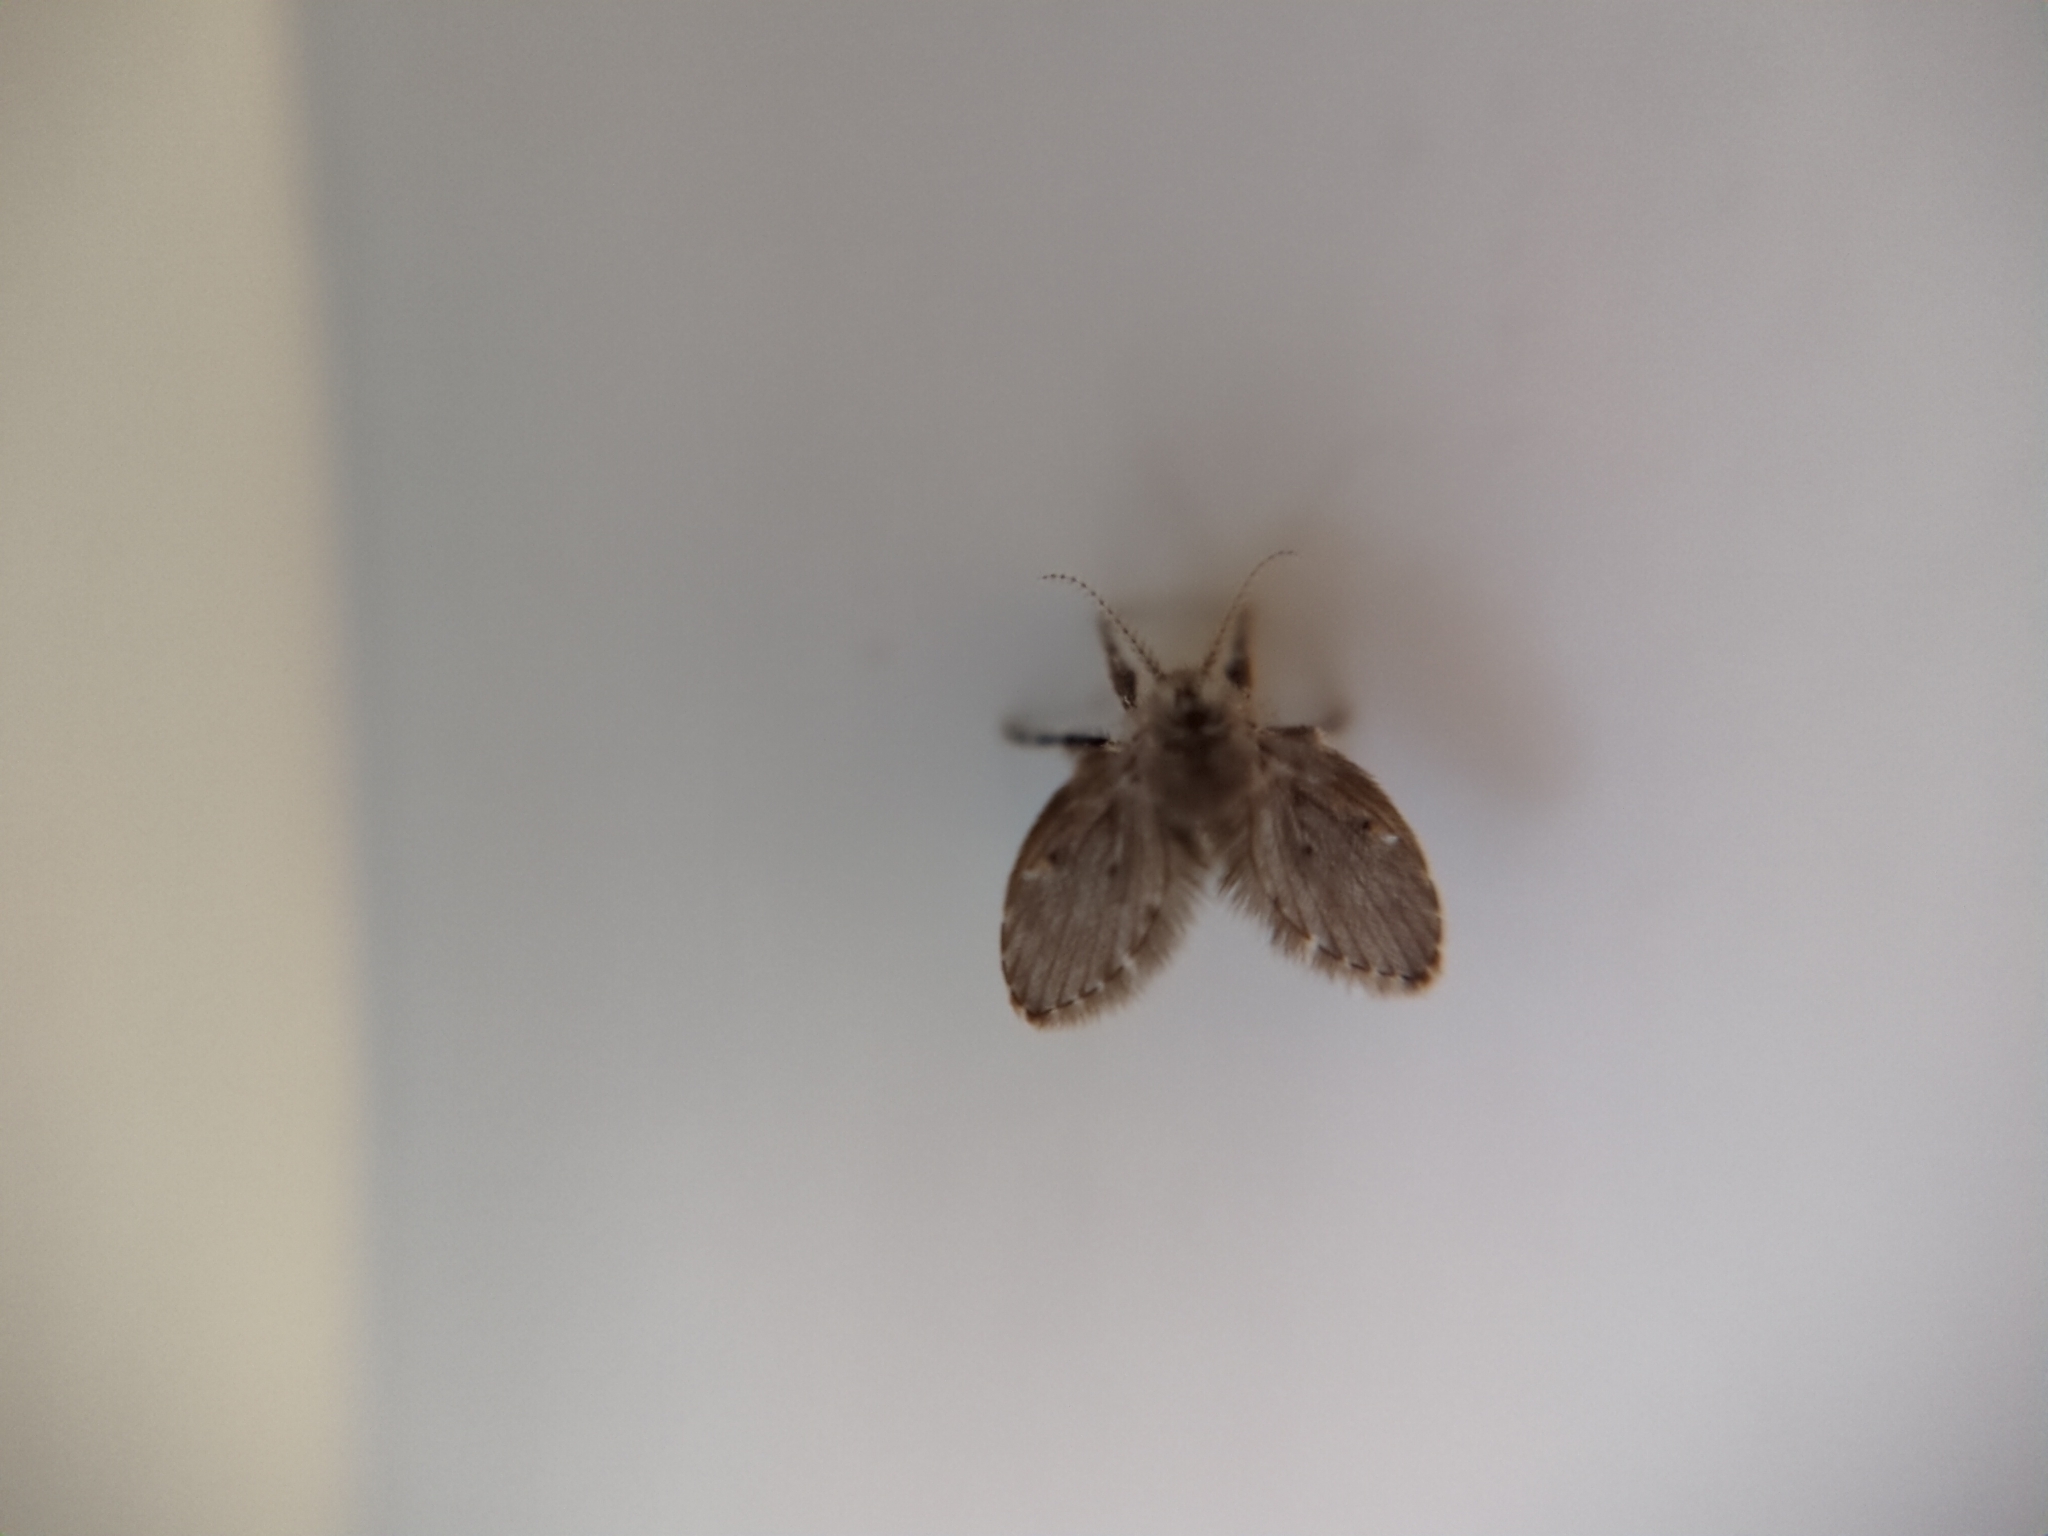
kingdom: Animalia
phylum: Arthropoda
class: Insecta
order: Diptera
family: Psychodidae
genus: Clogmia
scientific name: Clogmia albipunctatus
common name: White-spotted moth fly
